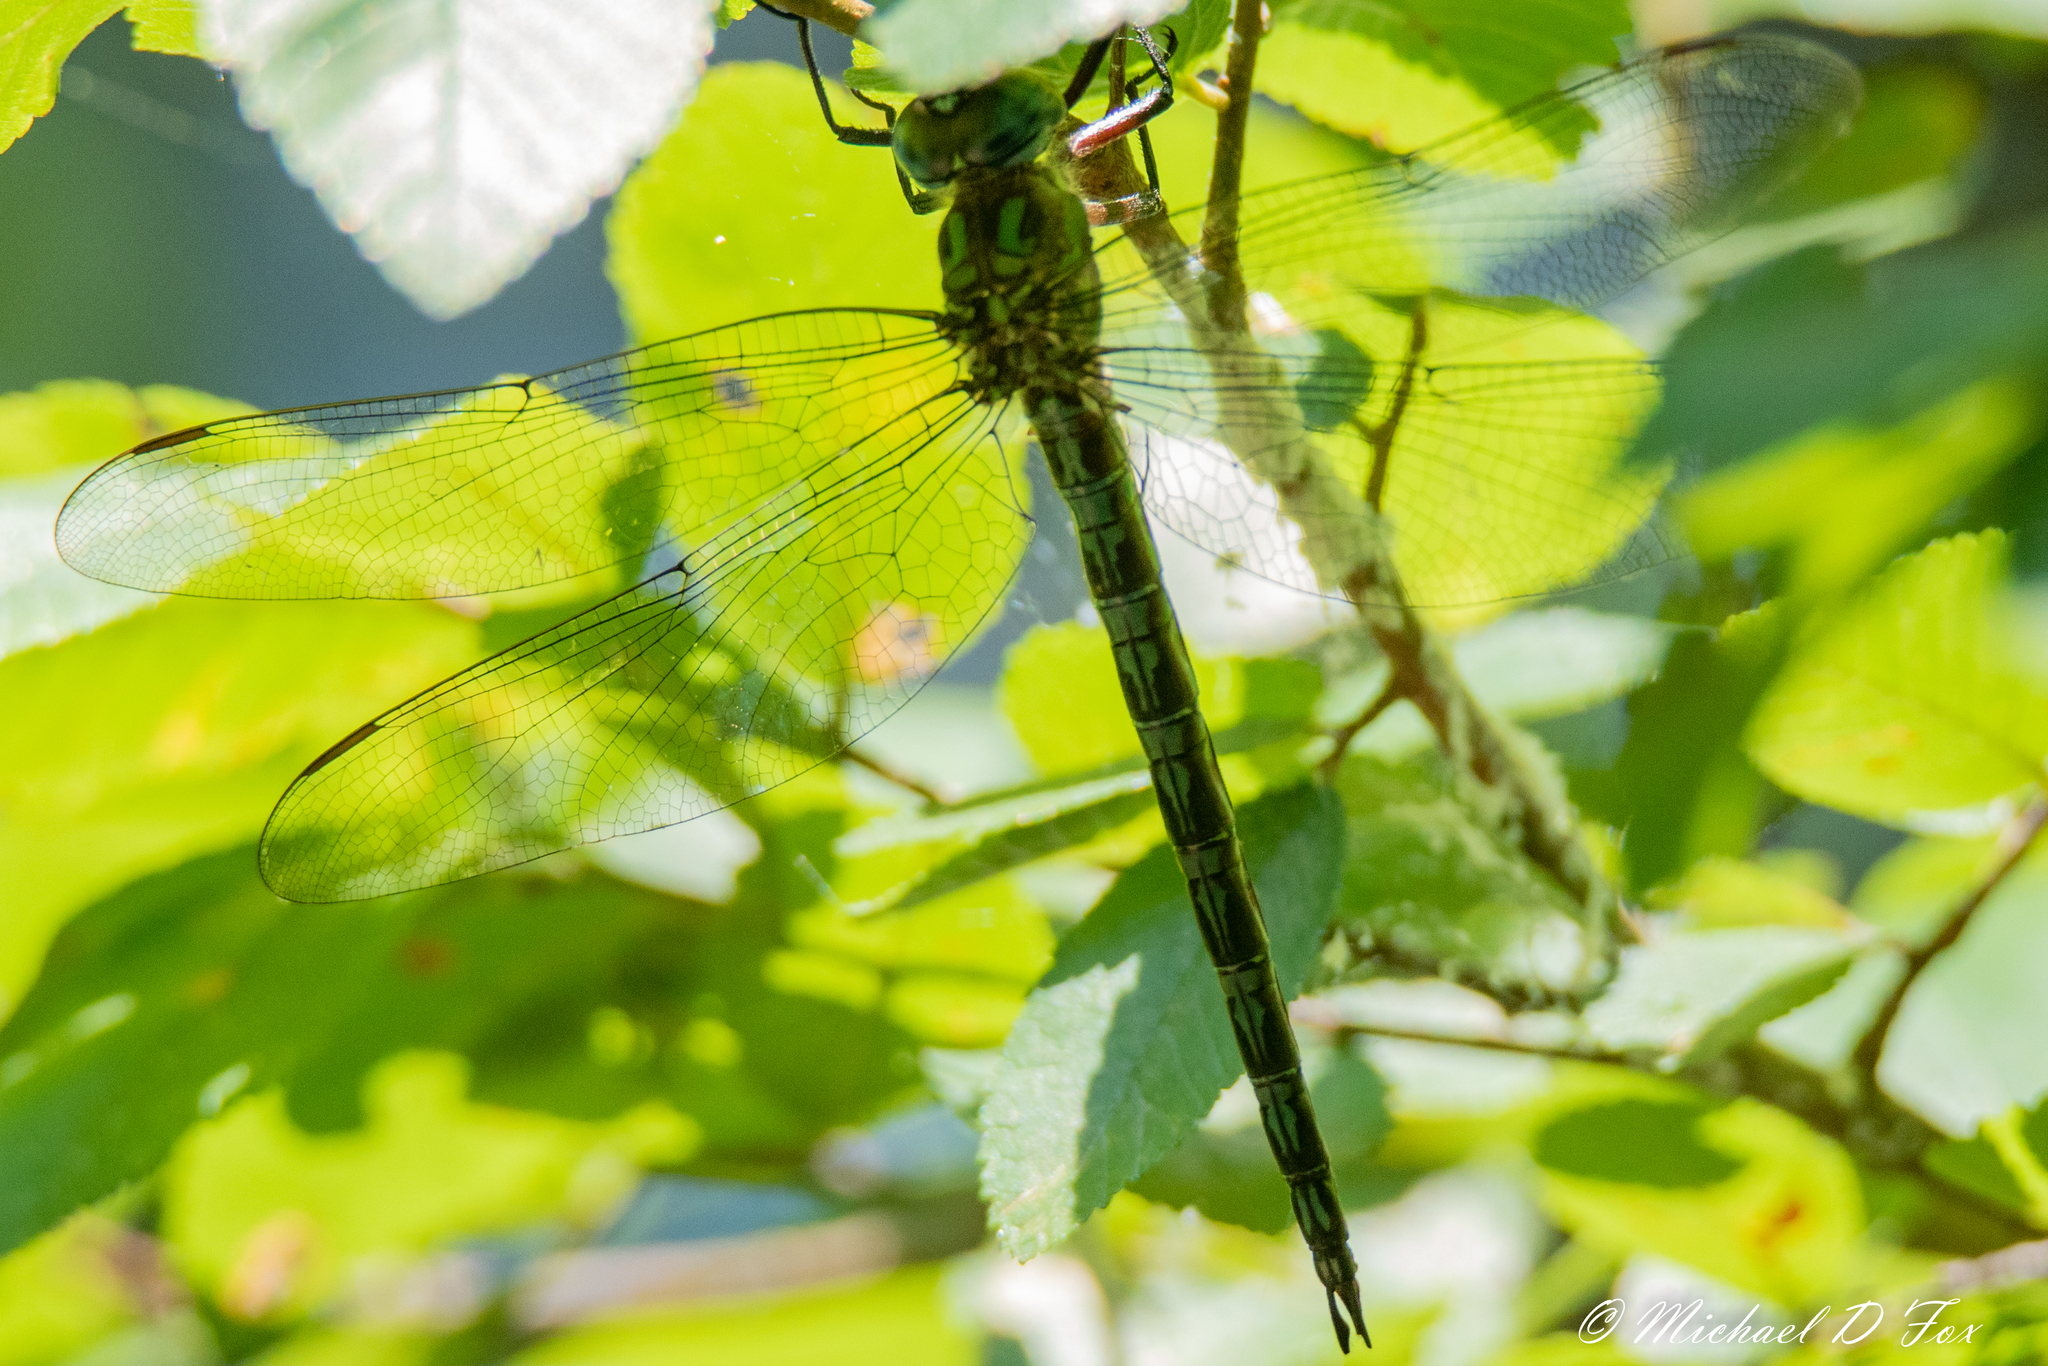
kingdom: Animalia
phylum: Arthropoda
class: Insecta
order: Odonata
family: Aeshnidae
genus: Nasiaeschna
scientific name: Nasiaeschna pentacantha
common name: Cyrano darner
